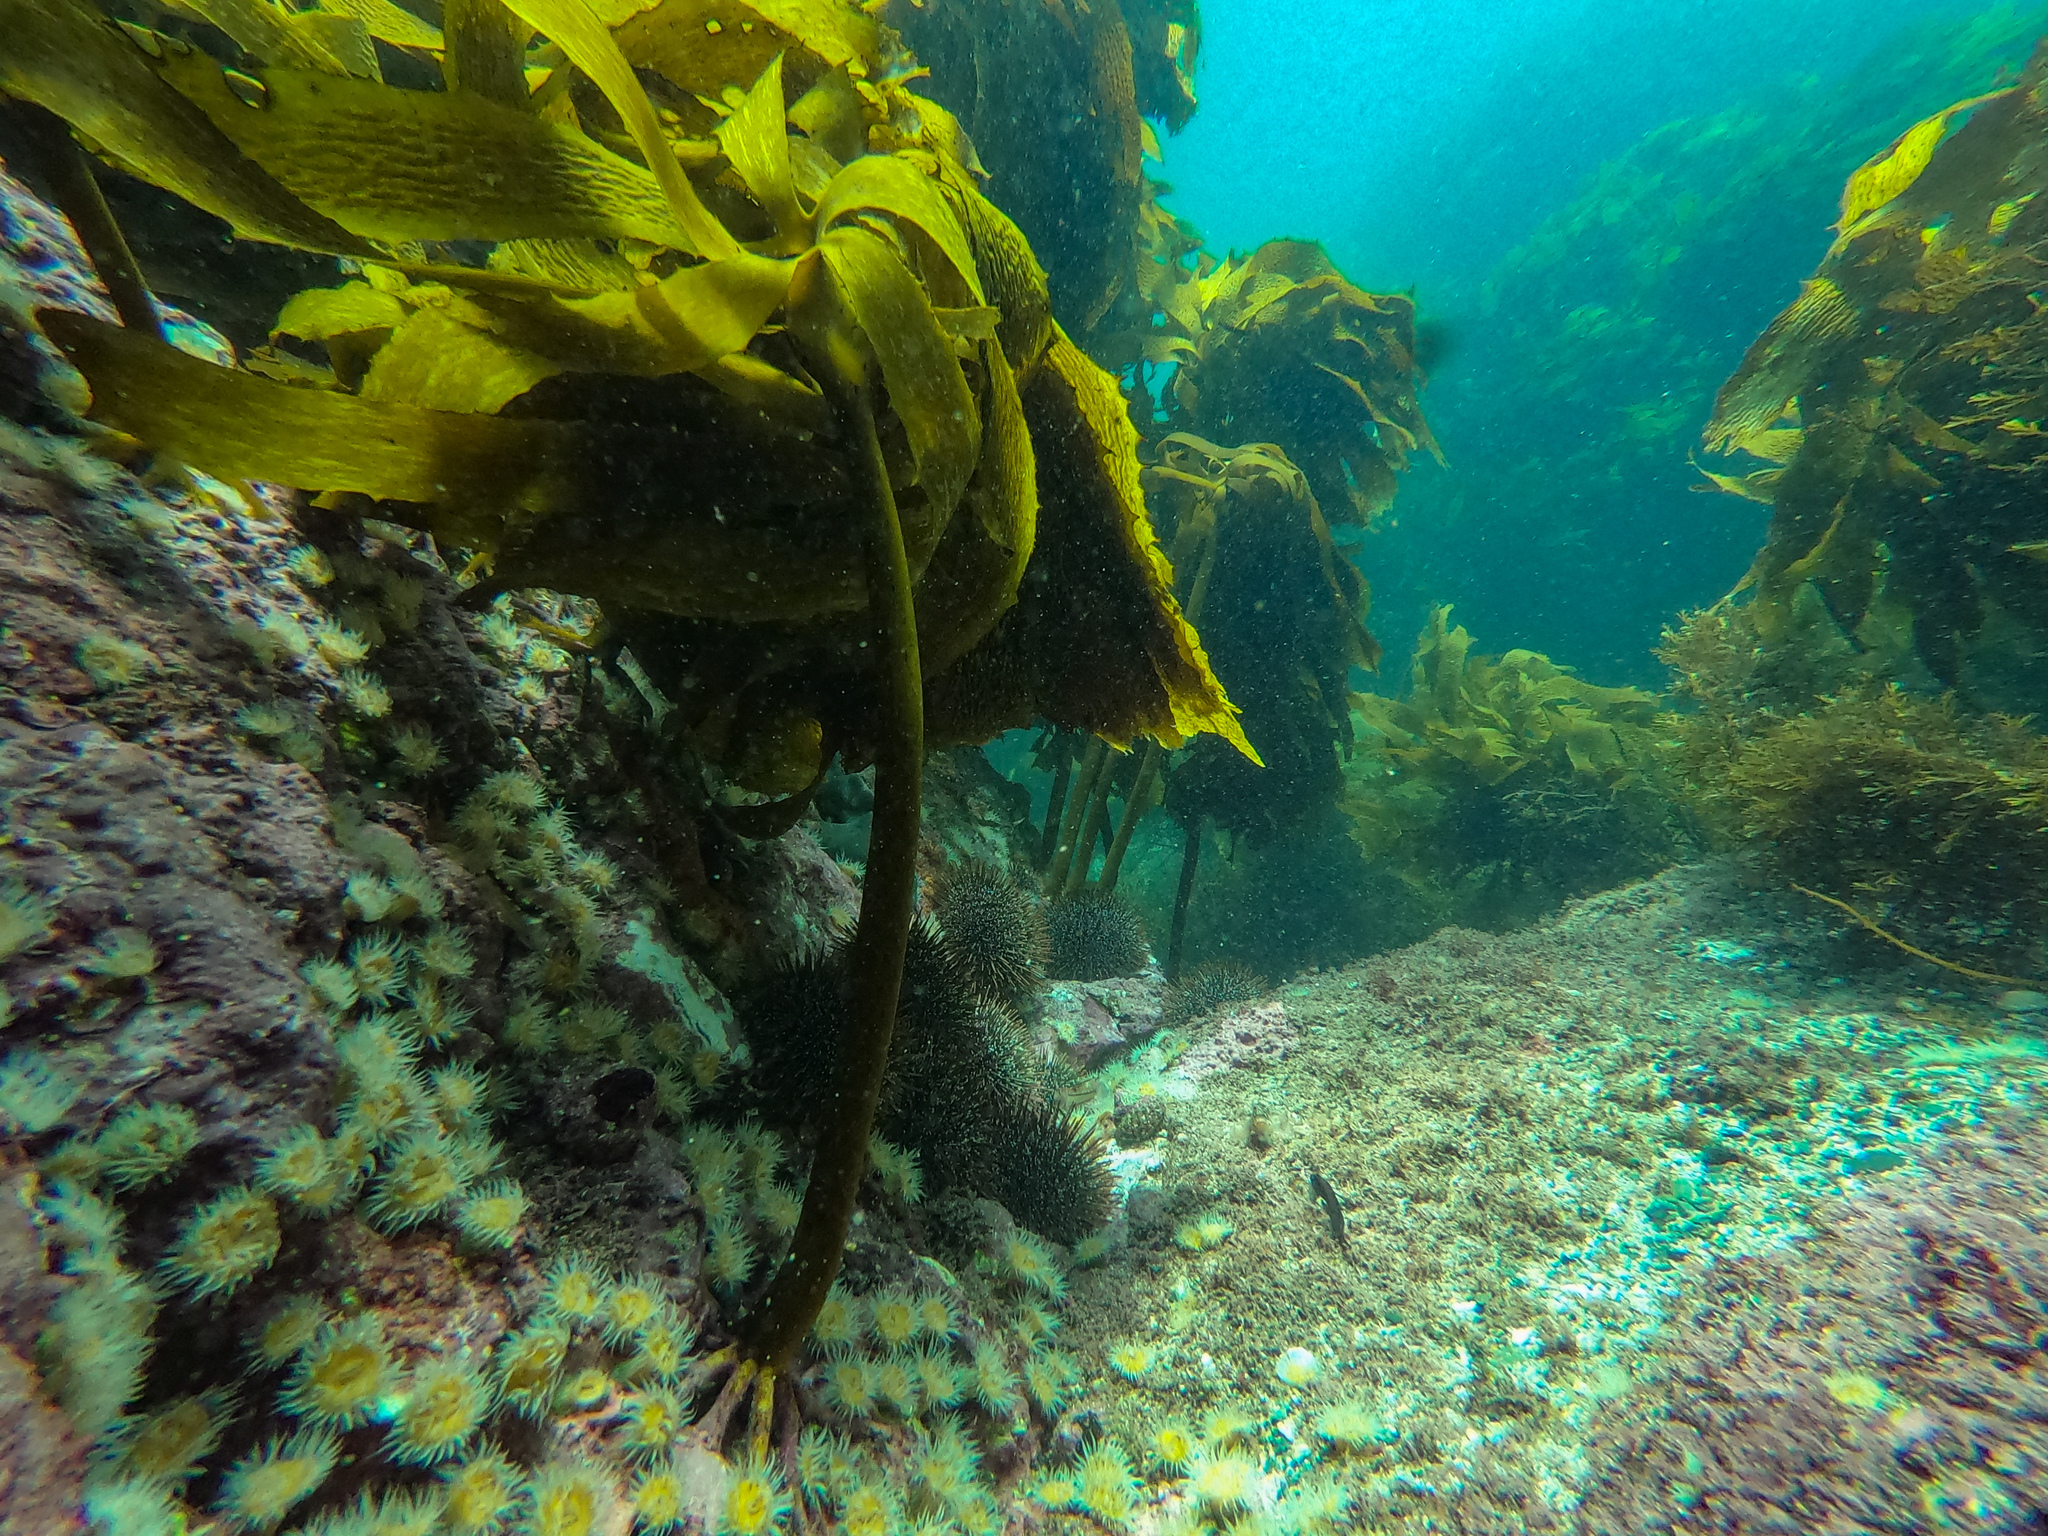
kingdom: Animalia
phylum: Echinodermata
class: Echinoidea
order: Camarodonta
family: Echinometridae
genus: Evechinus
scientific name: Evechinus chloroticus
